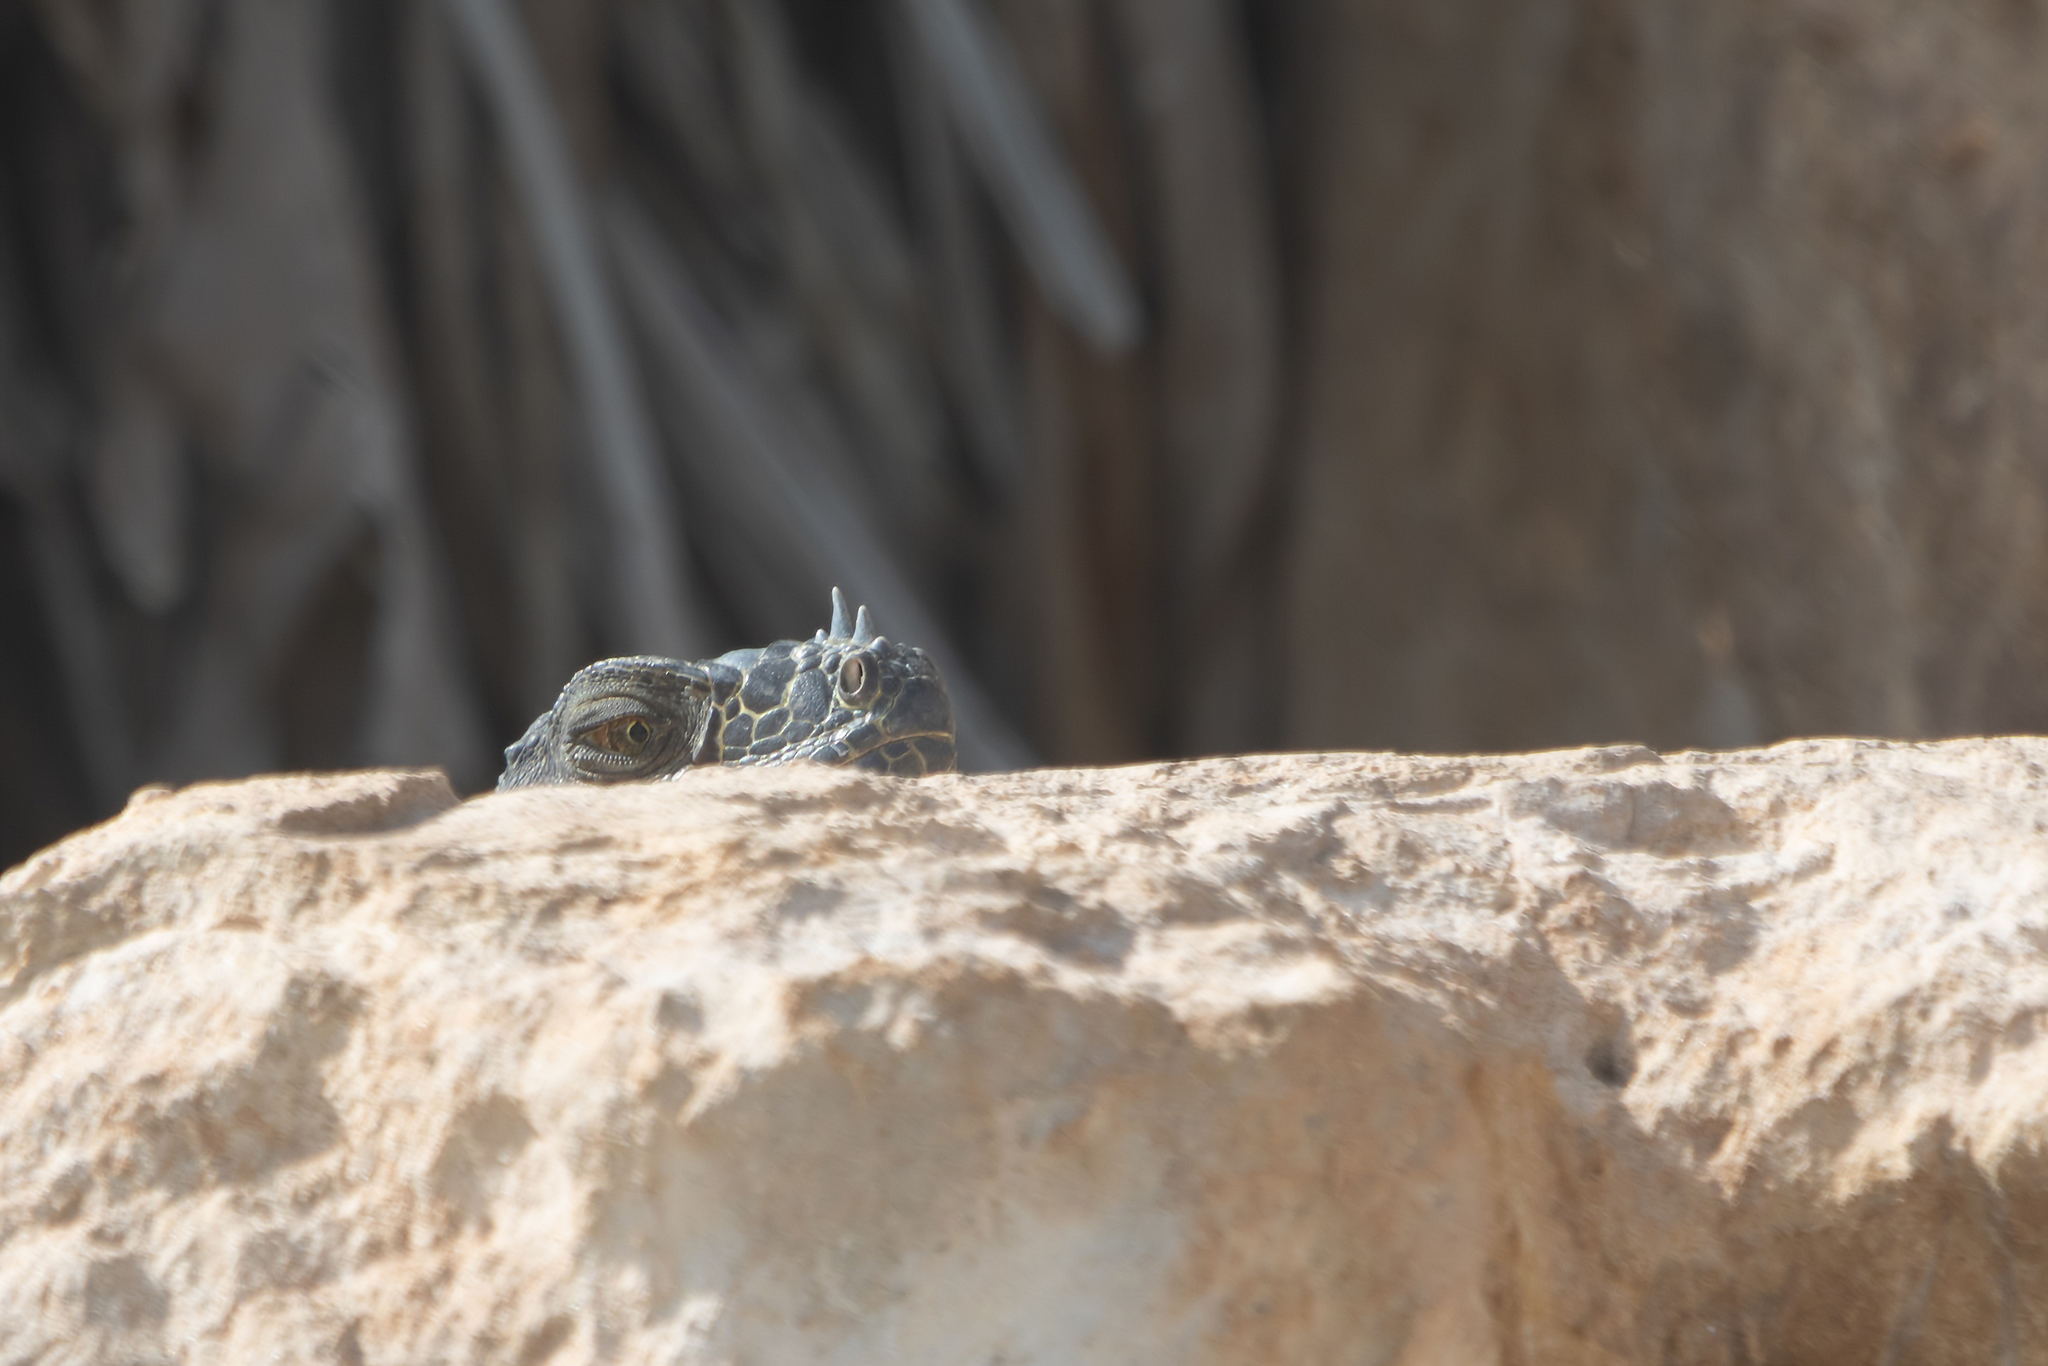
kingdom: Animalia
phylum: Chordata
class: Squamata
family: Iguanidae
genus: Iguana
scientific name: Iguana iguana
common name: Green iguana
